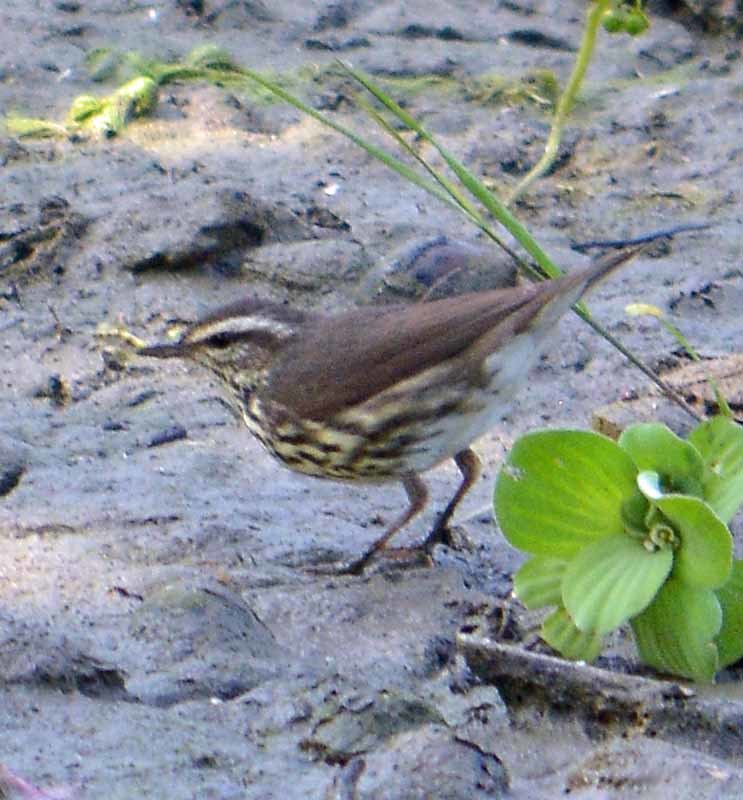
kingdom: Animalia
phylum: Chordata
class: Aves
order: Passeriformes
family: Parulidae
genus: Parkesia
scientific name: Parkesia noveboracensis
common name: Northern waterthrush
